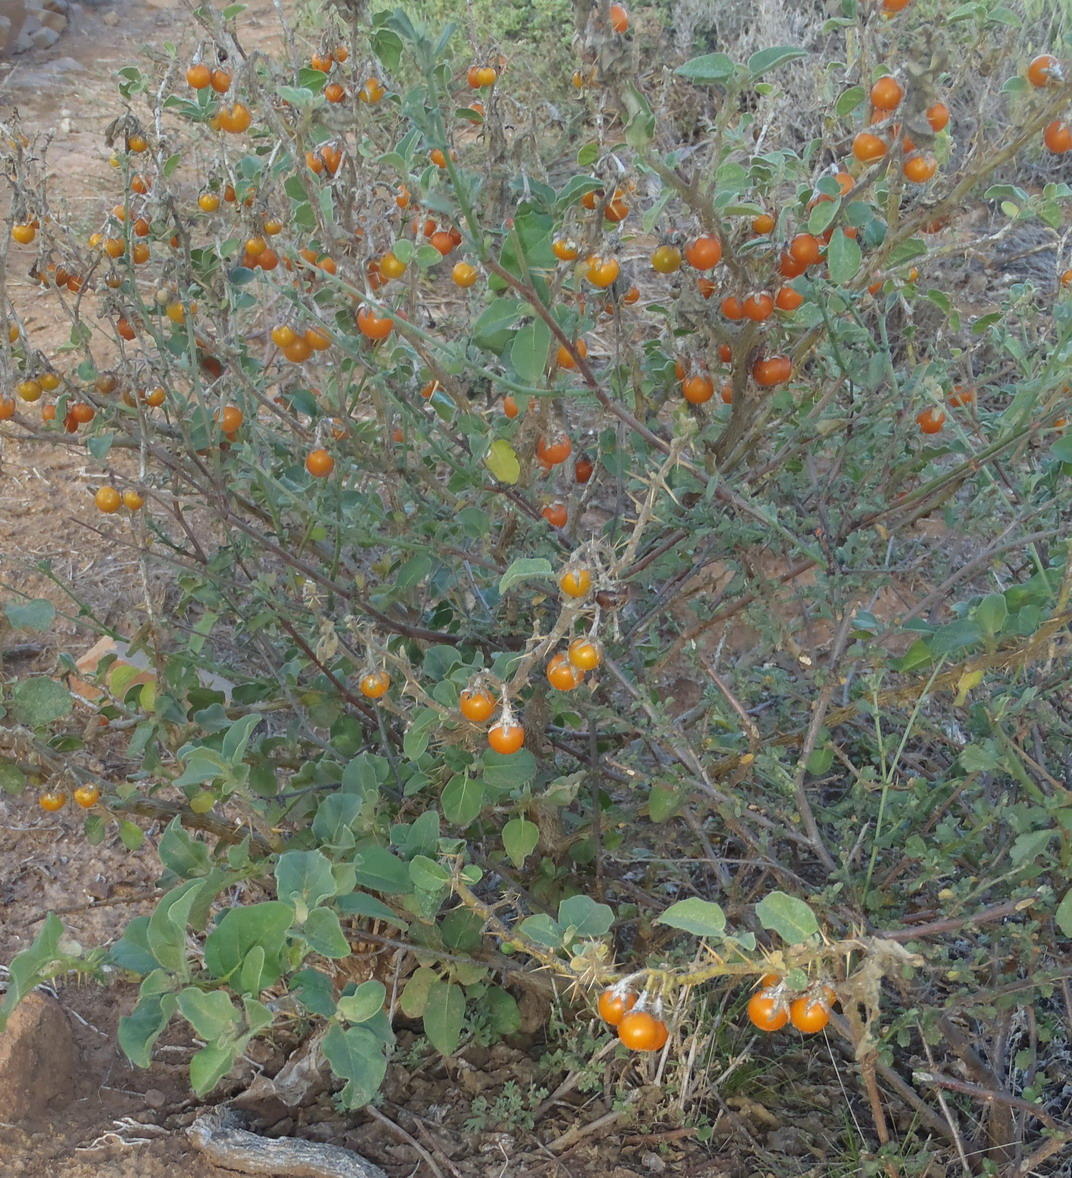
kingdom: Plantae
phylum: Tracheophyta
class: Magnoliopsida
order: Solanales
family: Solanaceae
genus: Solanum
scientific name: Solanum tomentosum
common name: Wild aubergine
